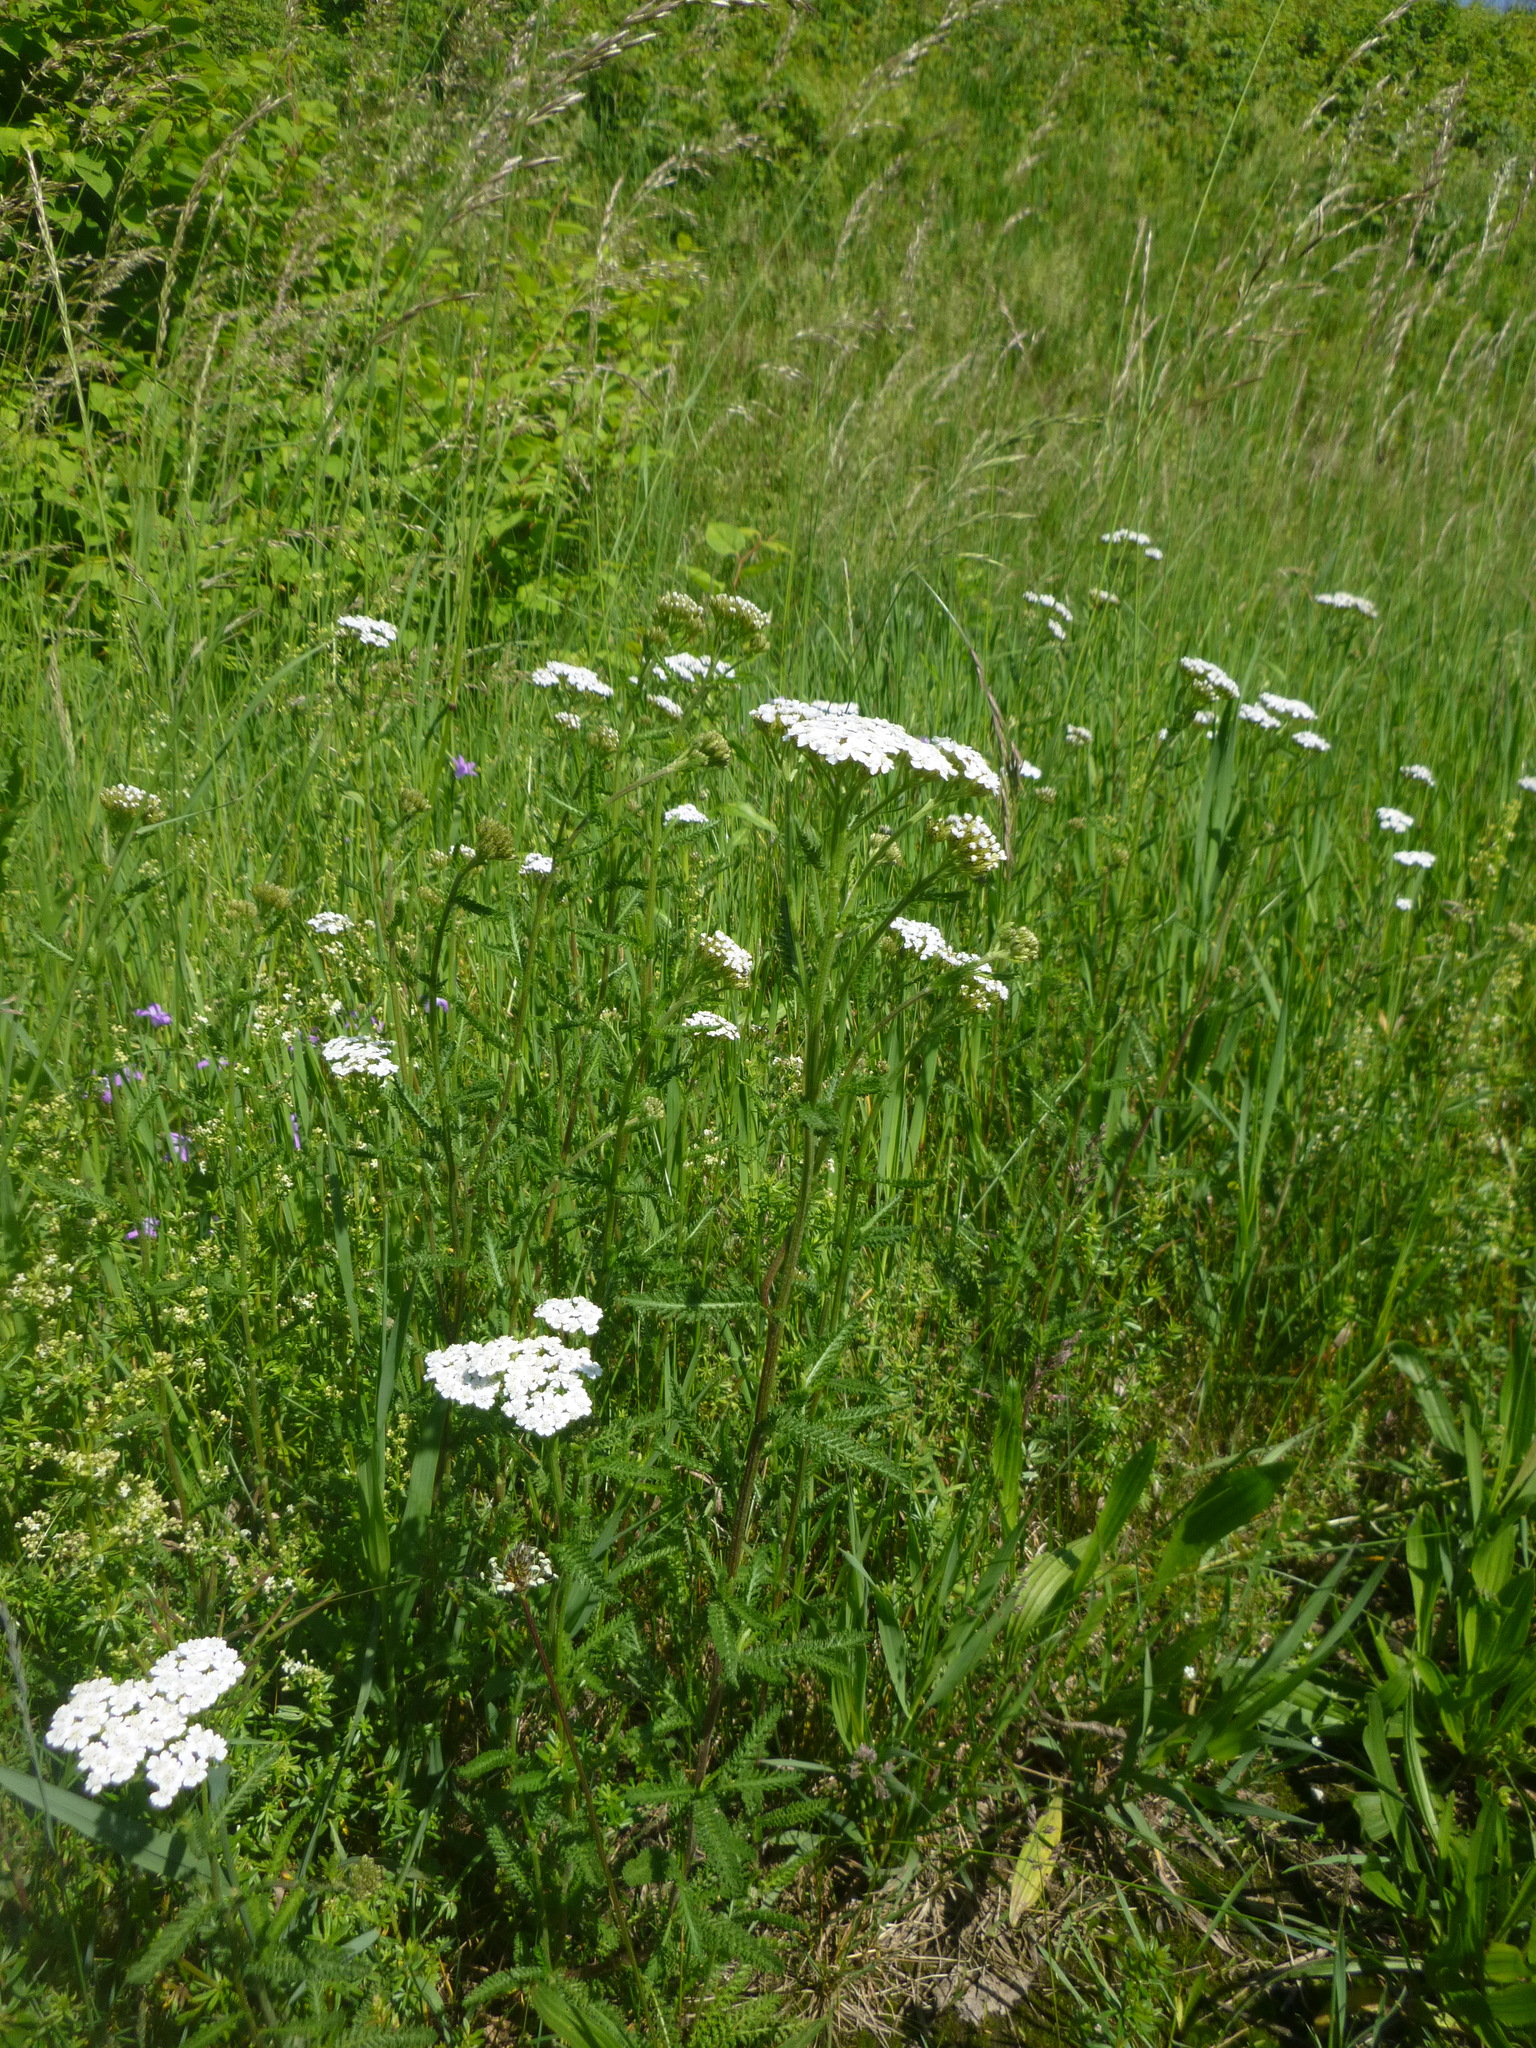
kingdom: Plantae
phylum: Tracheophyta
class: Magnoliopsida
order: Asterales
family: Asteraceae
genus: Achillea
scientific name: Achillea millefolium
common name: Yarrow
